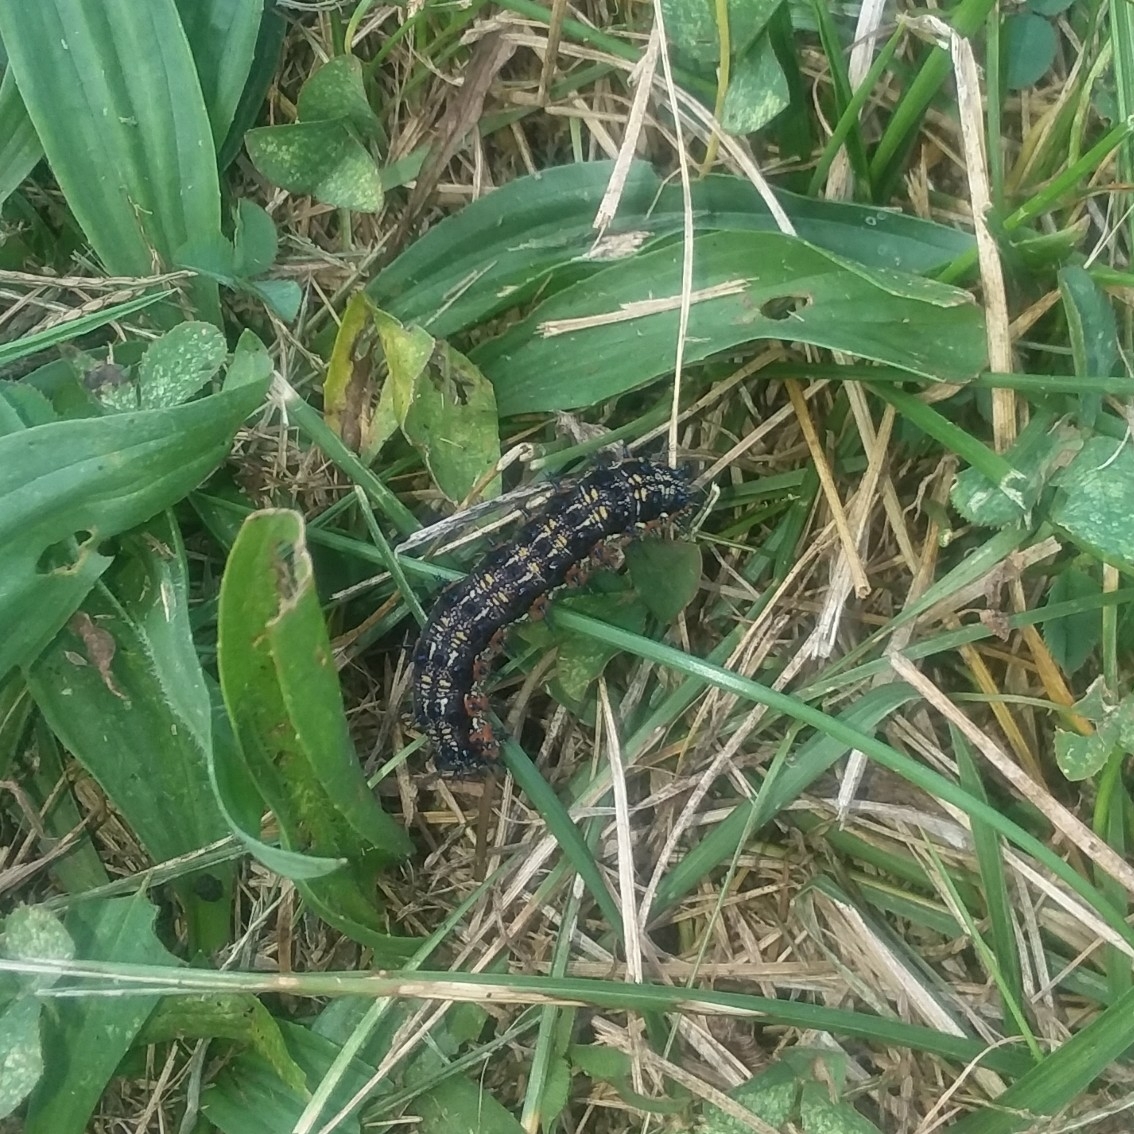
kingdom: Animalia
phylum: Arthropoda
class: Insecta
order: Lepidoptera
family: Nymphalidae
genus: Junonia
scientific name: Junonia coenia
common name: Common buckeye
